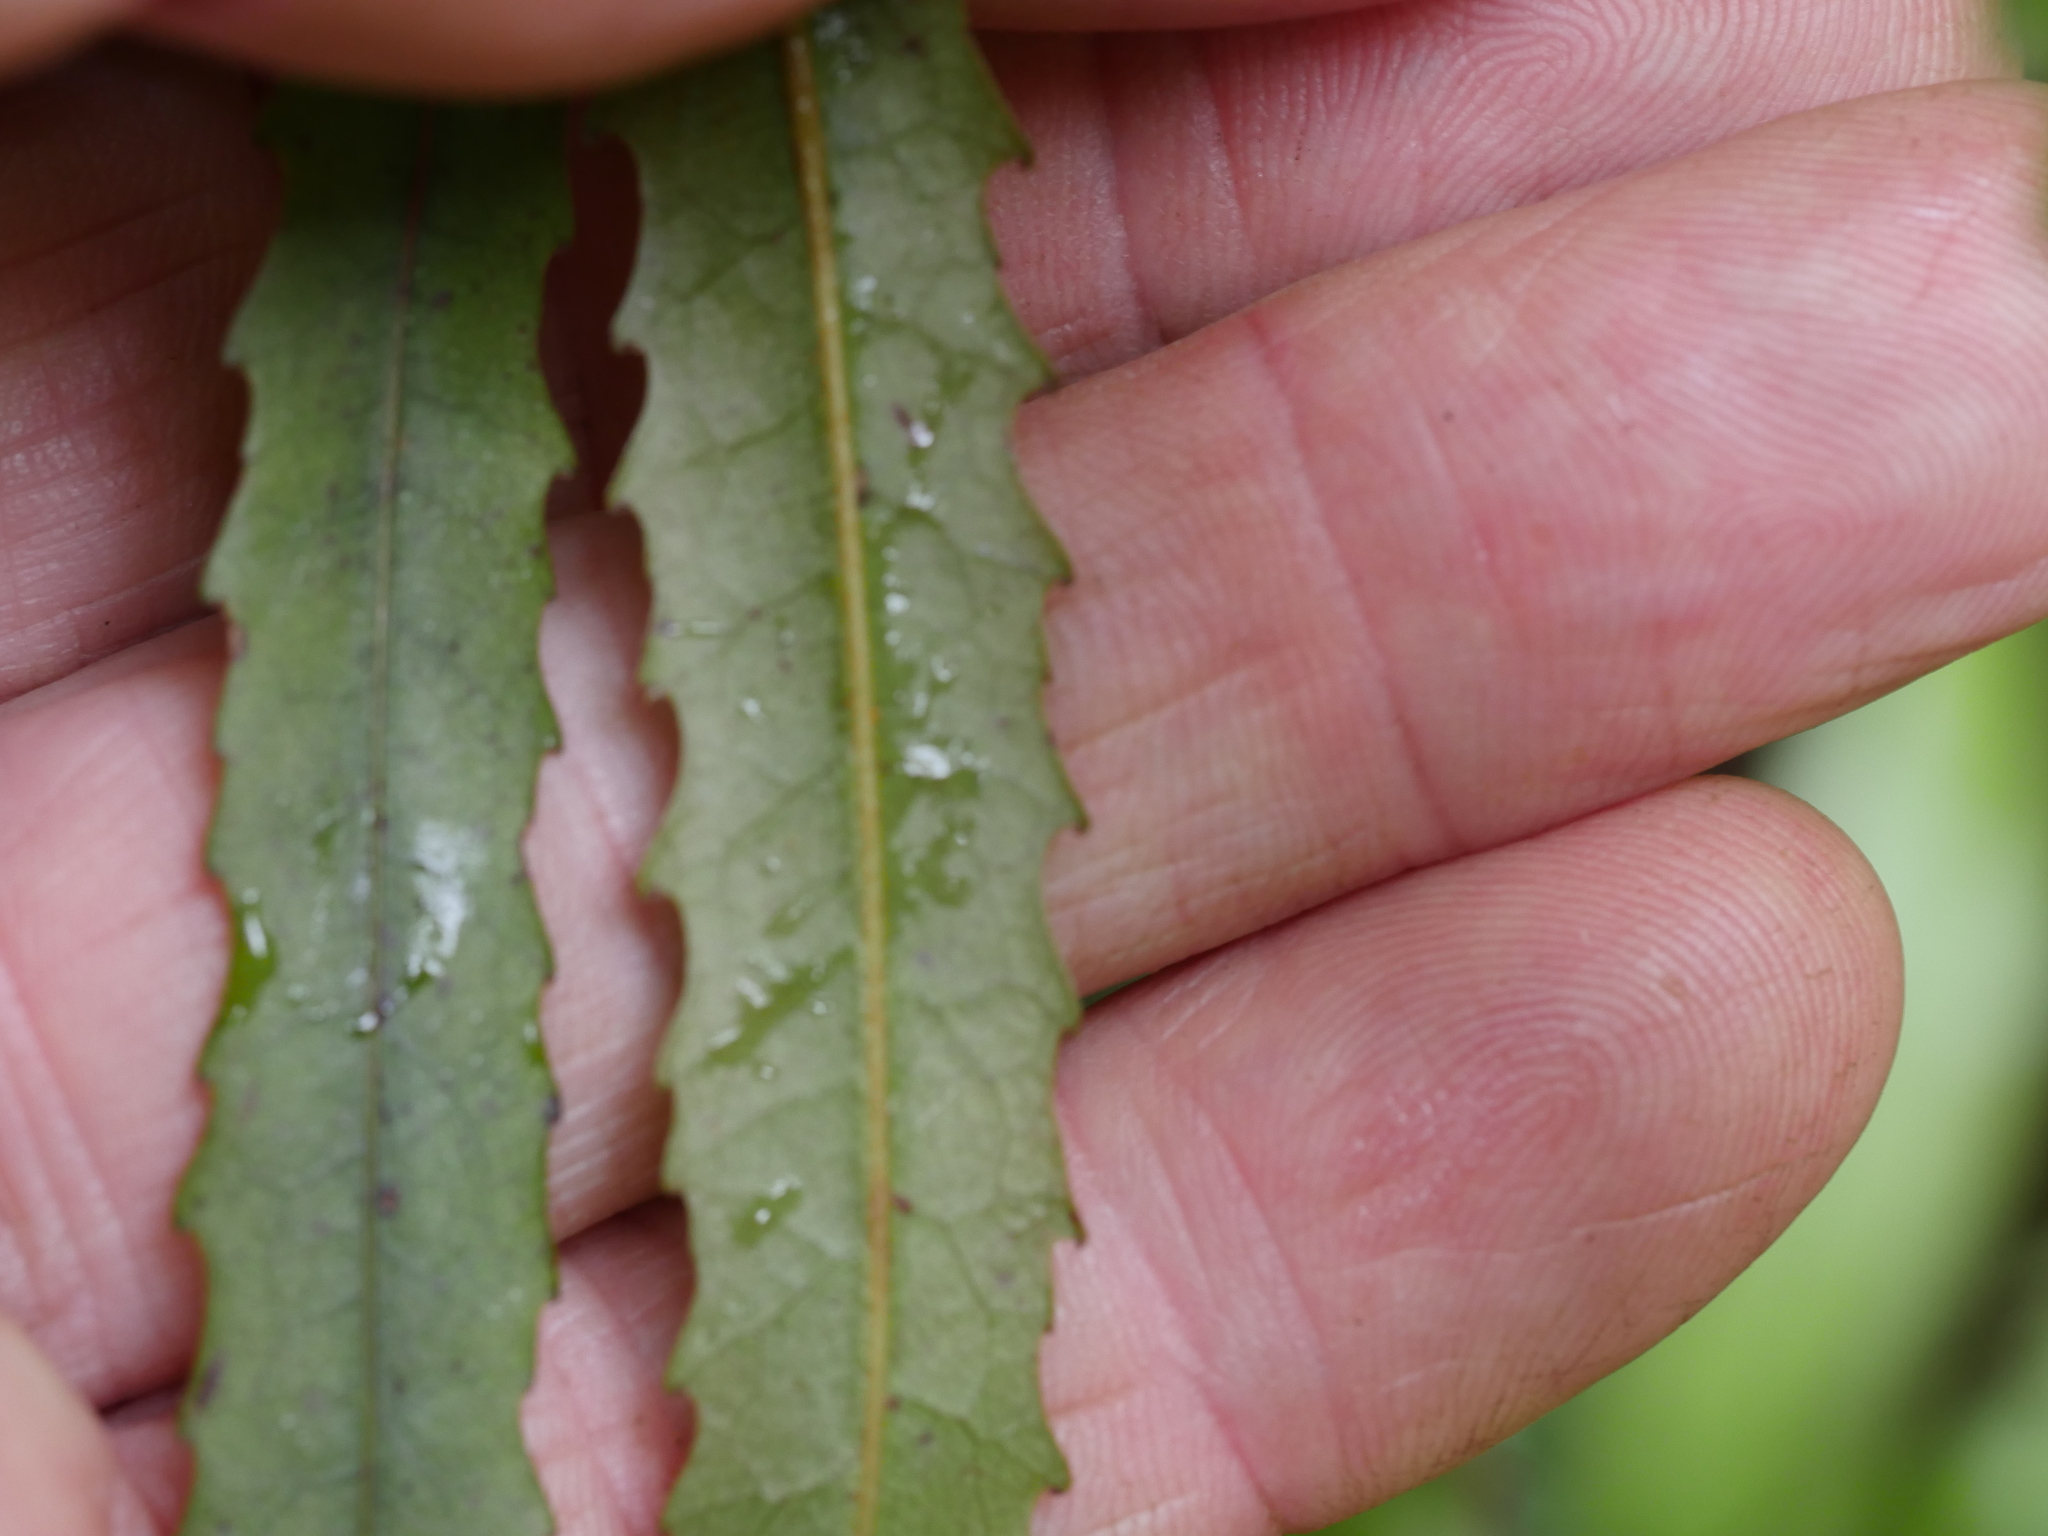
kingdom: Plantae
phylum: Tracheophyta
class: Magnoliopsida
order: Oxalidales
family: Elaeocarpaceae
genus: Elaeocarpus
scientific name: Elaeocarpus dentatus
